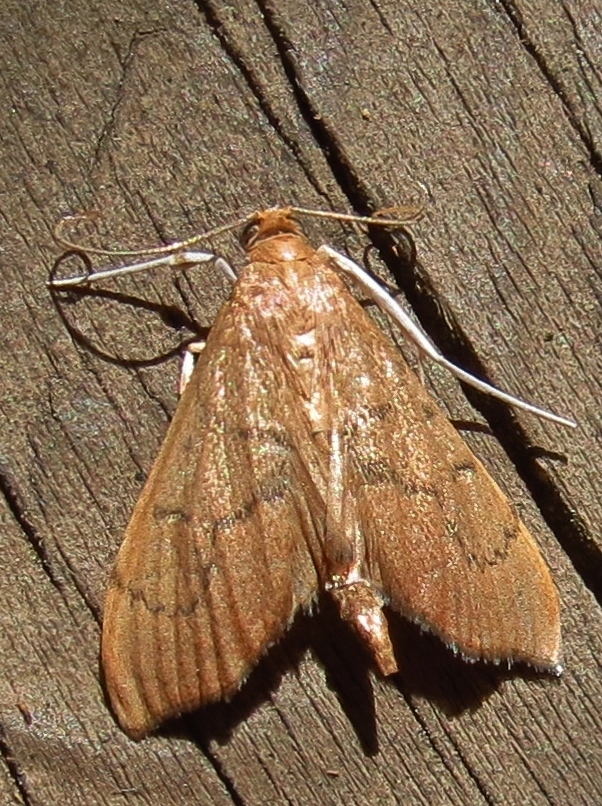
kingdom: Animalia
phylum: Arthropoda
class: Insecta
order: Lepidoptera
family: Crambidae
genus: Sericoplaga
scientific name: Sericoplaga externalis
